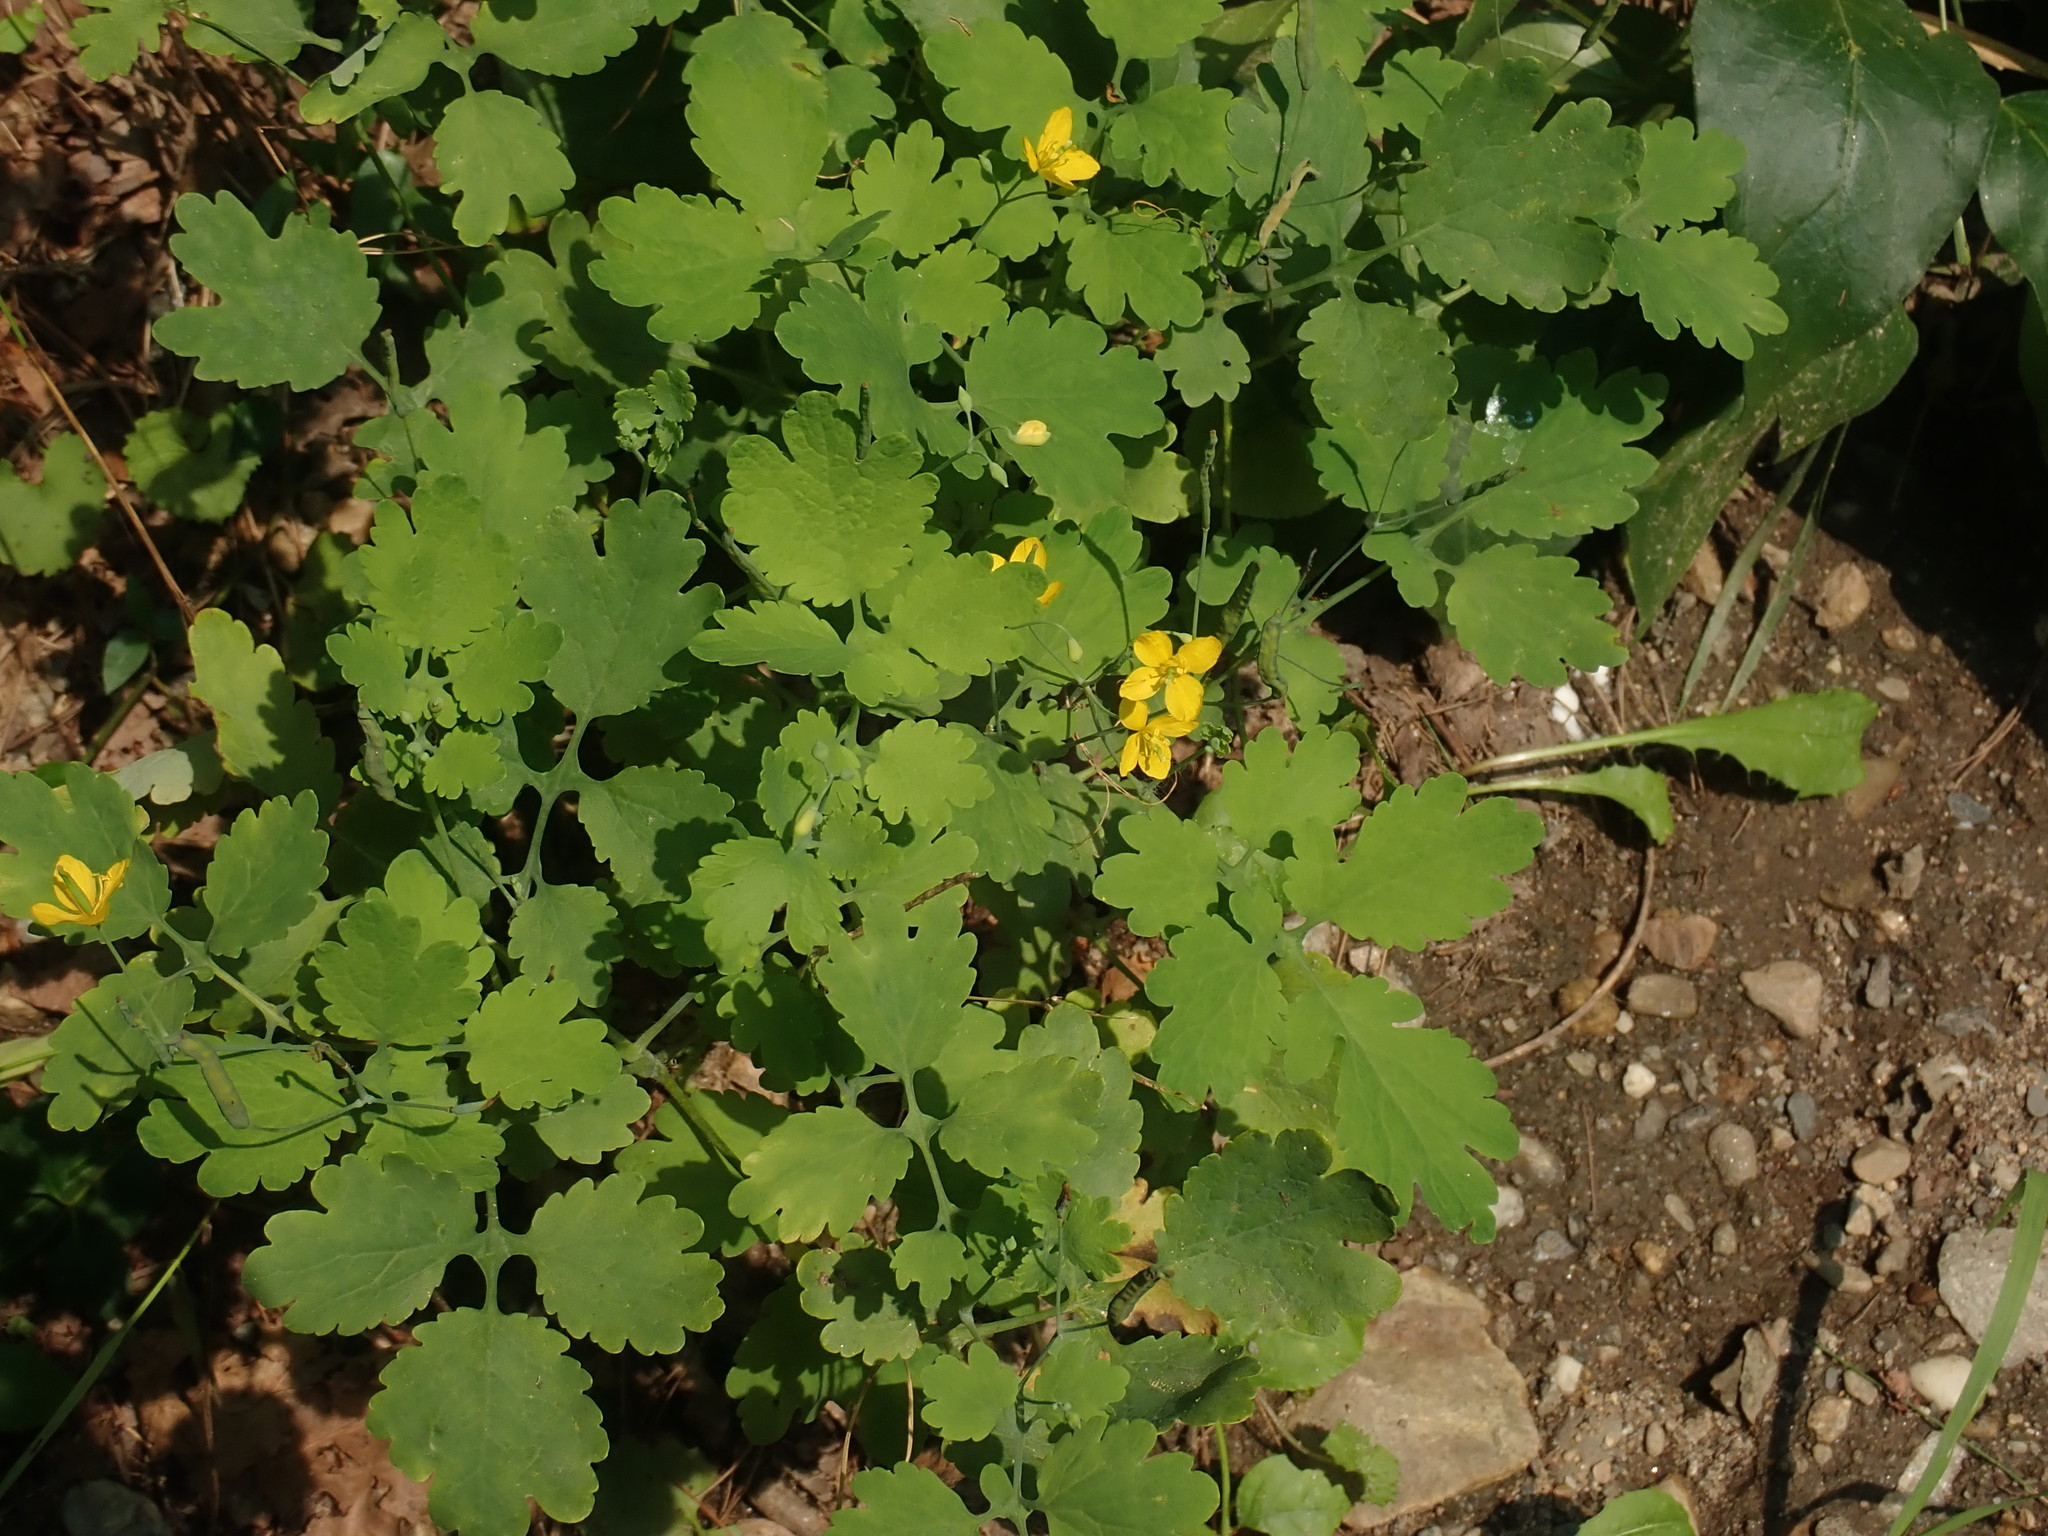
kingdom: Plantae
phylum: Tracheophyta
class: Magnoliopsida
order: Ranunculales
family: Papaveraceae
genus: Chelidonium
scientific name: Chelidonium majus
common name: Greater celandine
